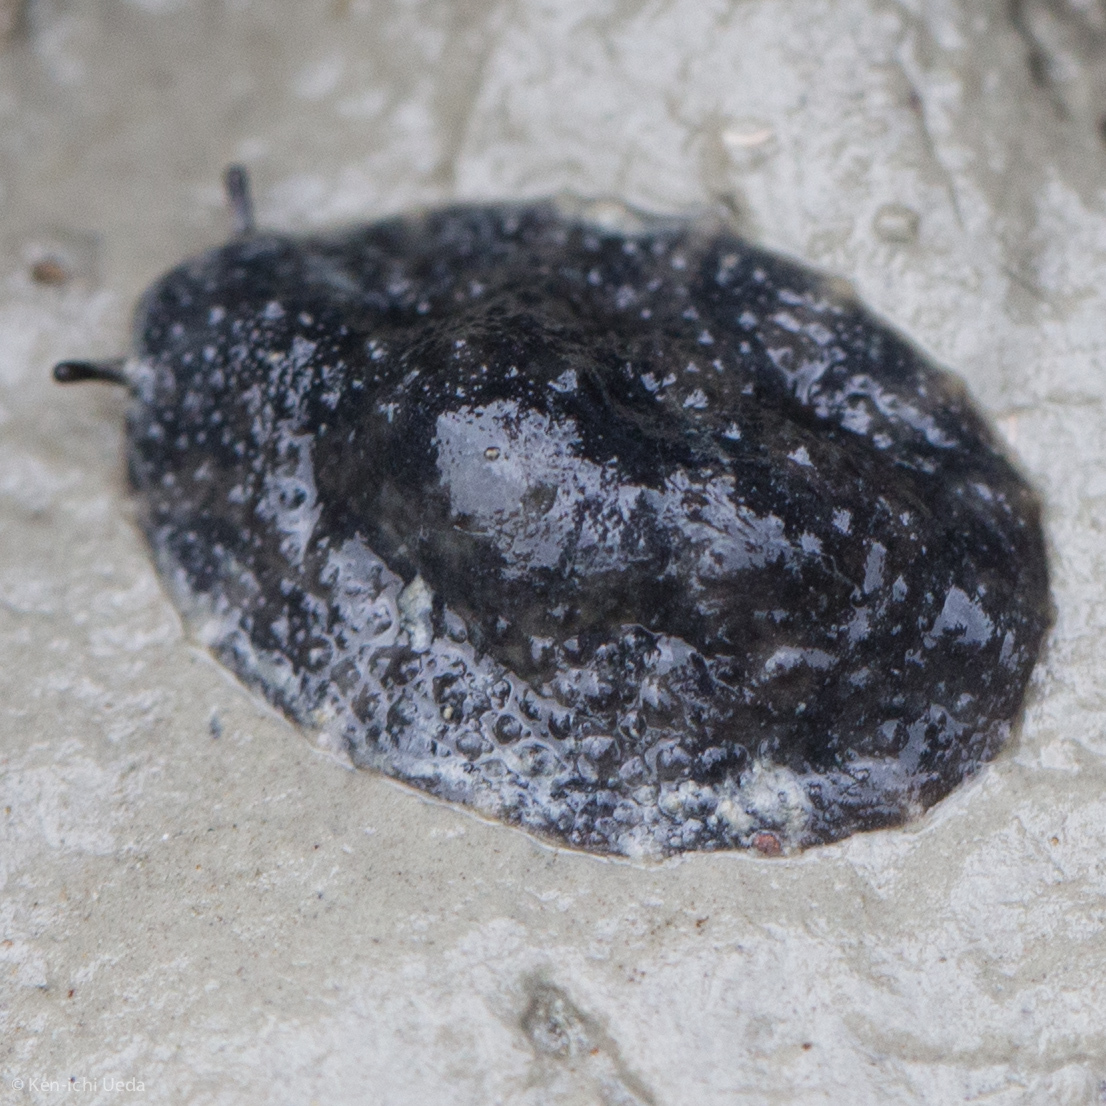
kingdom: Animalia
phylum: Mollusca
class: Gastropoda
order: Systellommatophora
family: Onchidiidae
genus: Onchidella
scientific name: Onchidella nigricans
